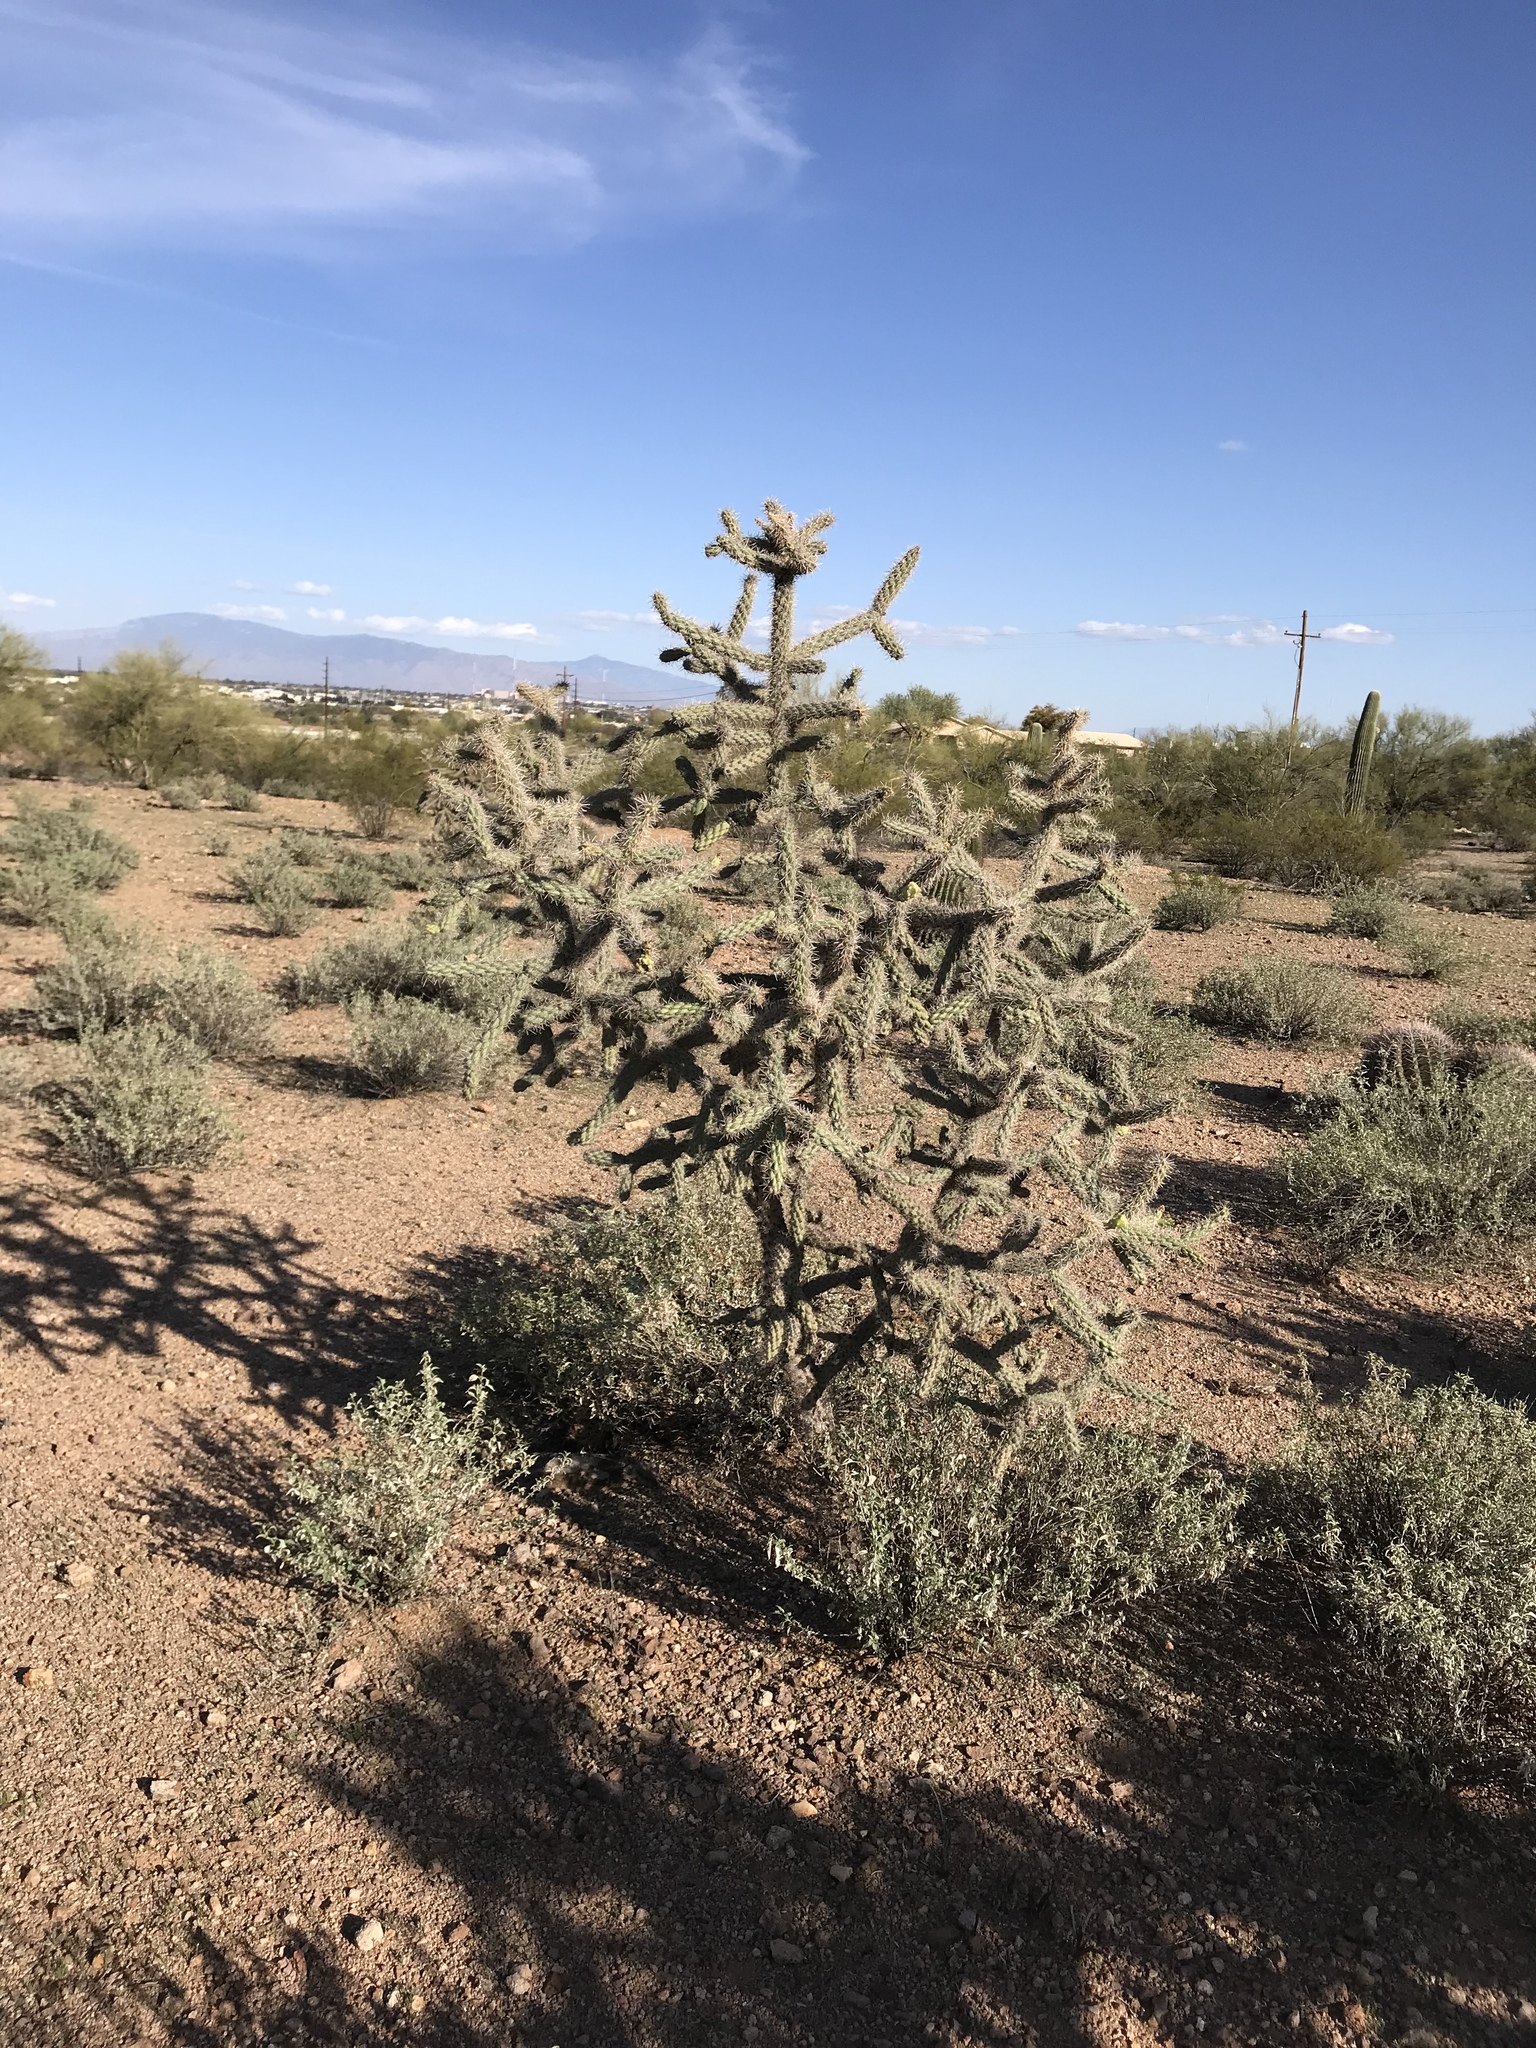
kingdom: Plantae
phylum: Tracheophyta
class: Magnoliopsida
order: Caryophyllales
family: Cactaceae
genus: Cylindropuntia
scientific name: Cylindropuntia imbricata
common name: Candelabrum cactus
